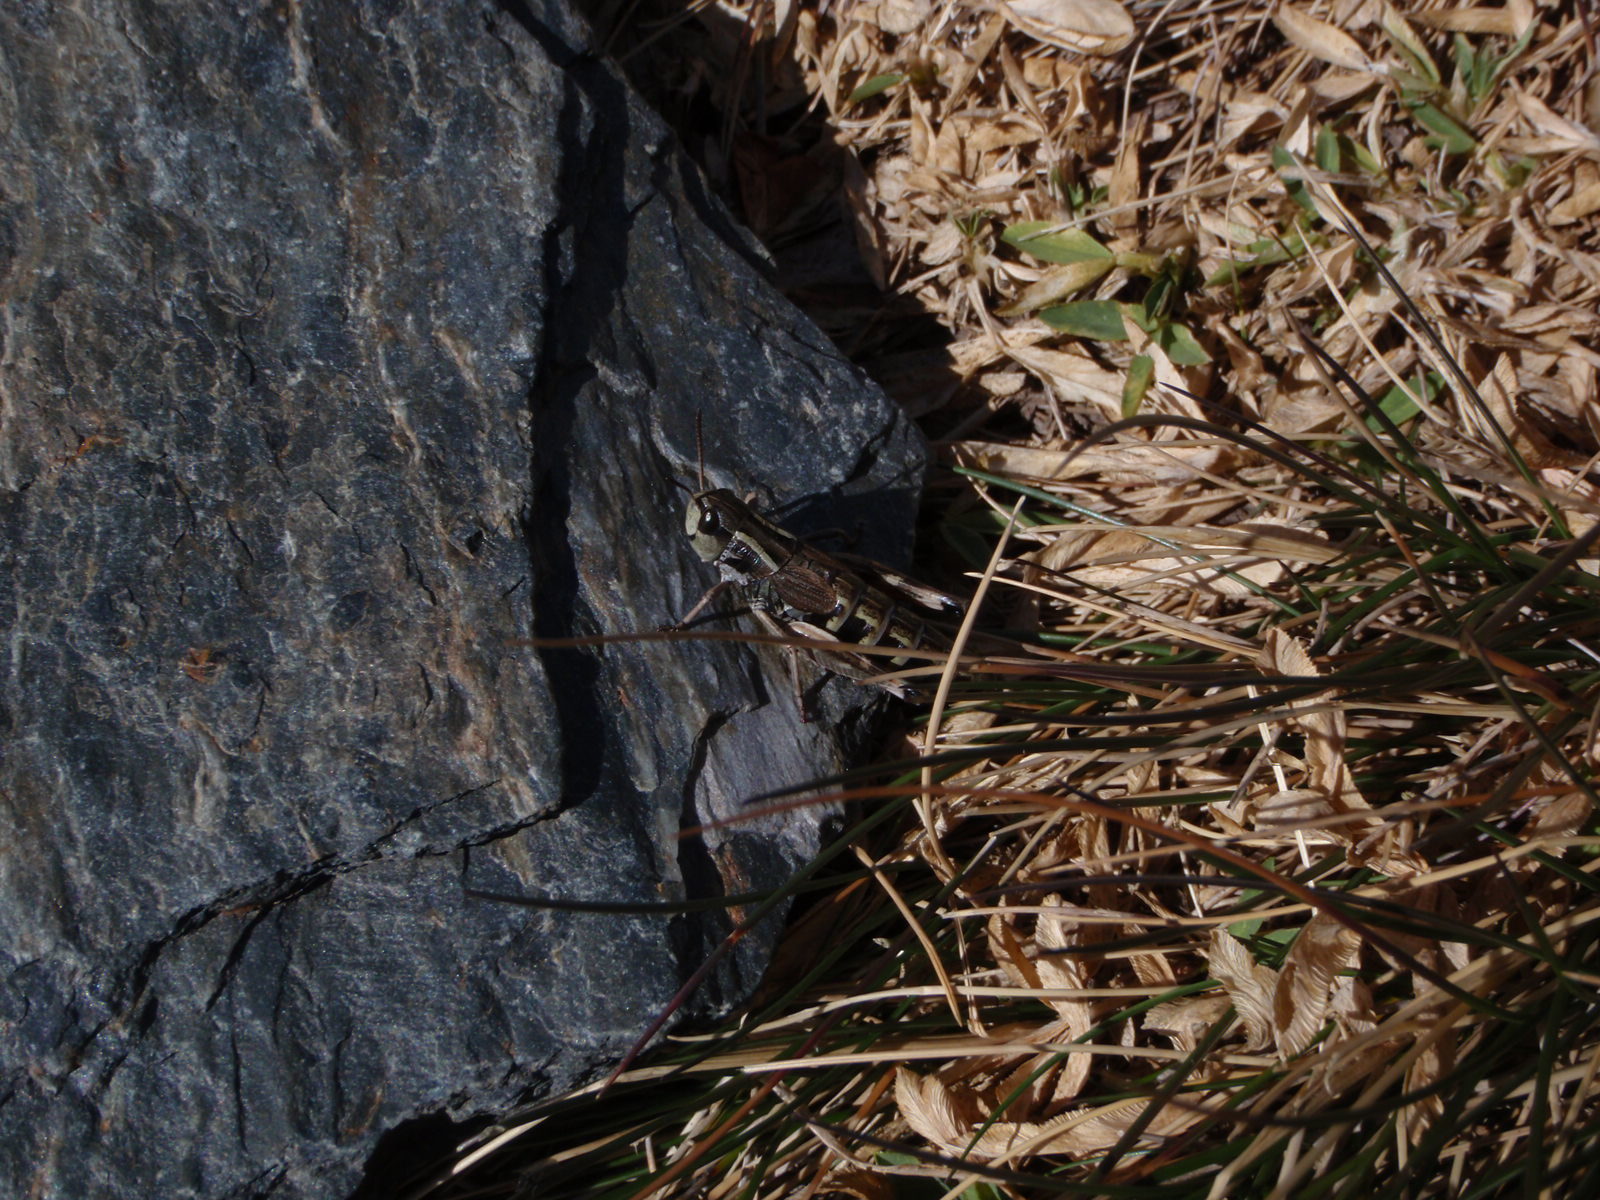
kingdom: Animalia
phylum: Arthropoda
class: Insecta
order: Orthoptera
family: Acrididae
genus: Gomphoceridius
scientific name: Gomphoceridius brevipenne
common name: Pyrenean short-winged grasshopper
